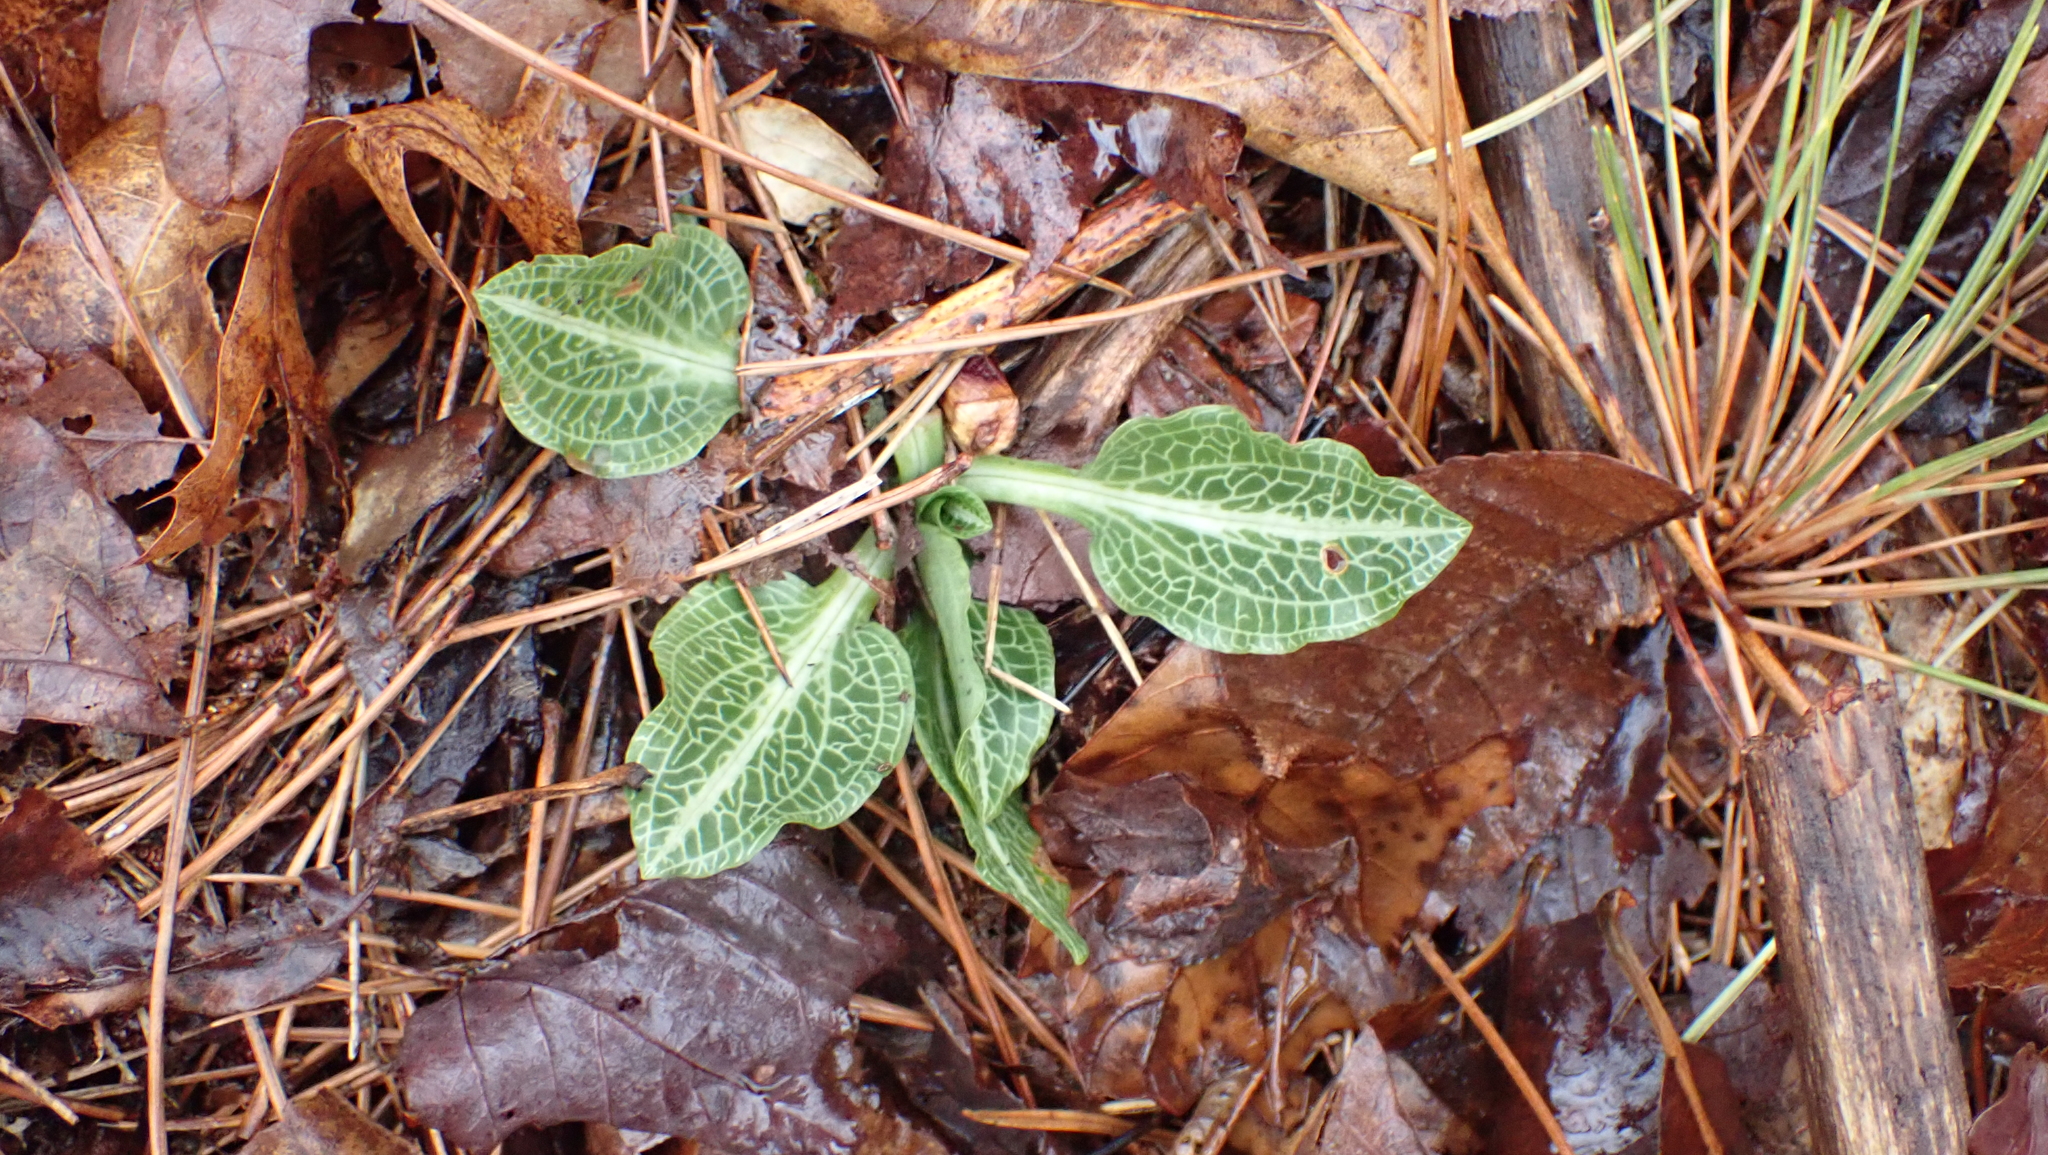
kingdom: Plantae
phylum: Tracheophyta
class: Liliopsida
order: Asparagales
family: Orchidaceae
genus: Goodyera
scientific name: Goodyera pubescens
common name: Downy rattlesnake-plantain
